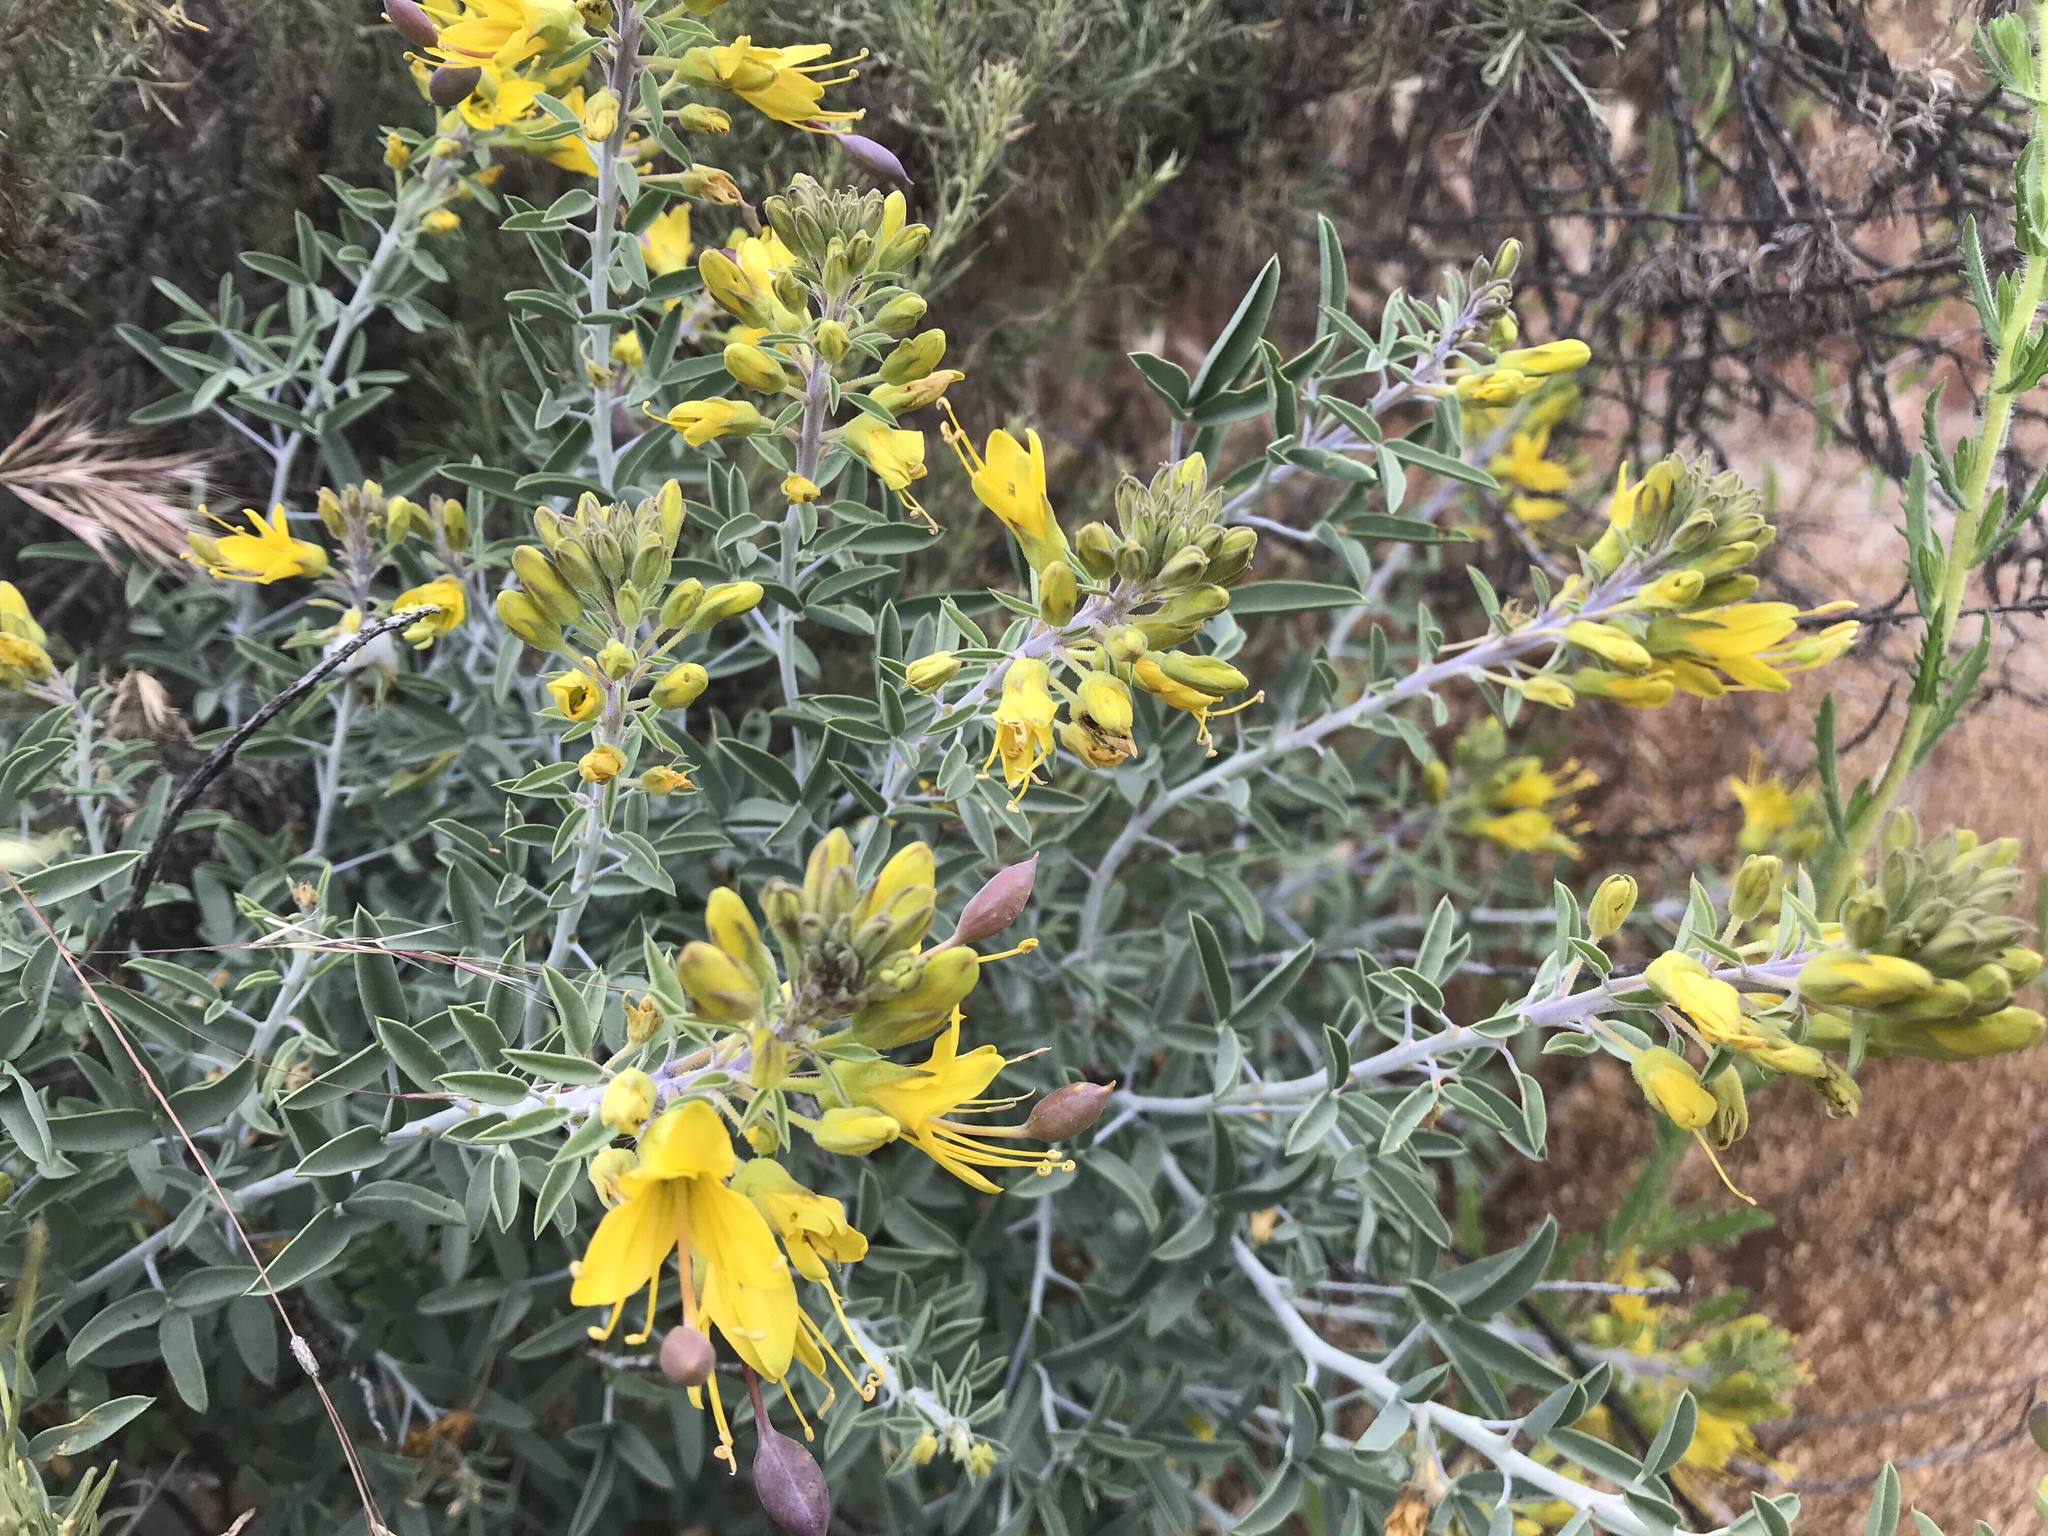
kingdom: Plantae
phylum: Tracheophyta
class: Magnoliopsida
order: Brassicales
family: Cleomaceae
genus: Cleomella
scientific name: Cleomella arborea
